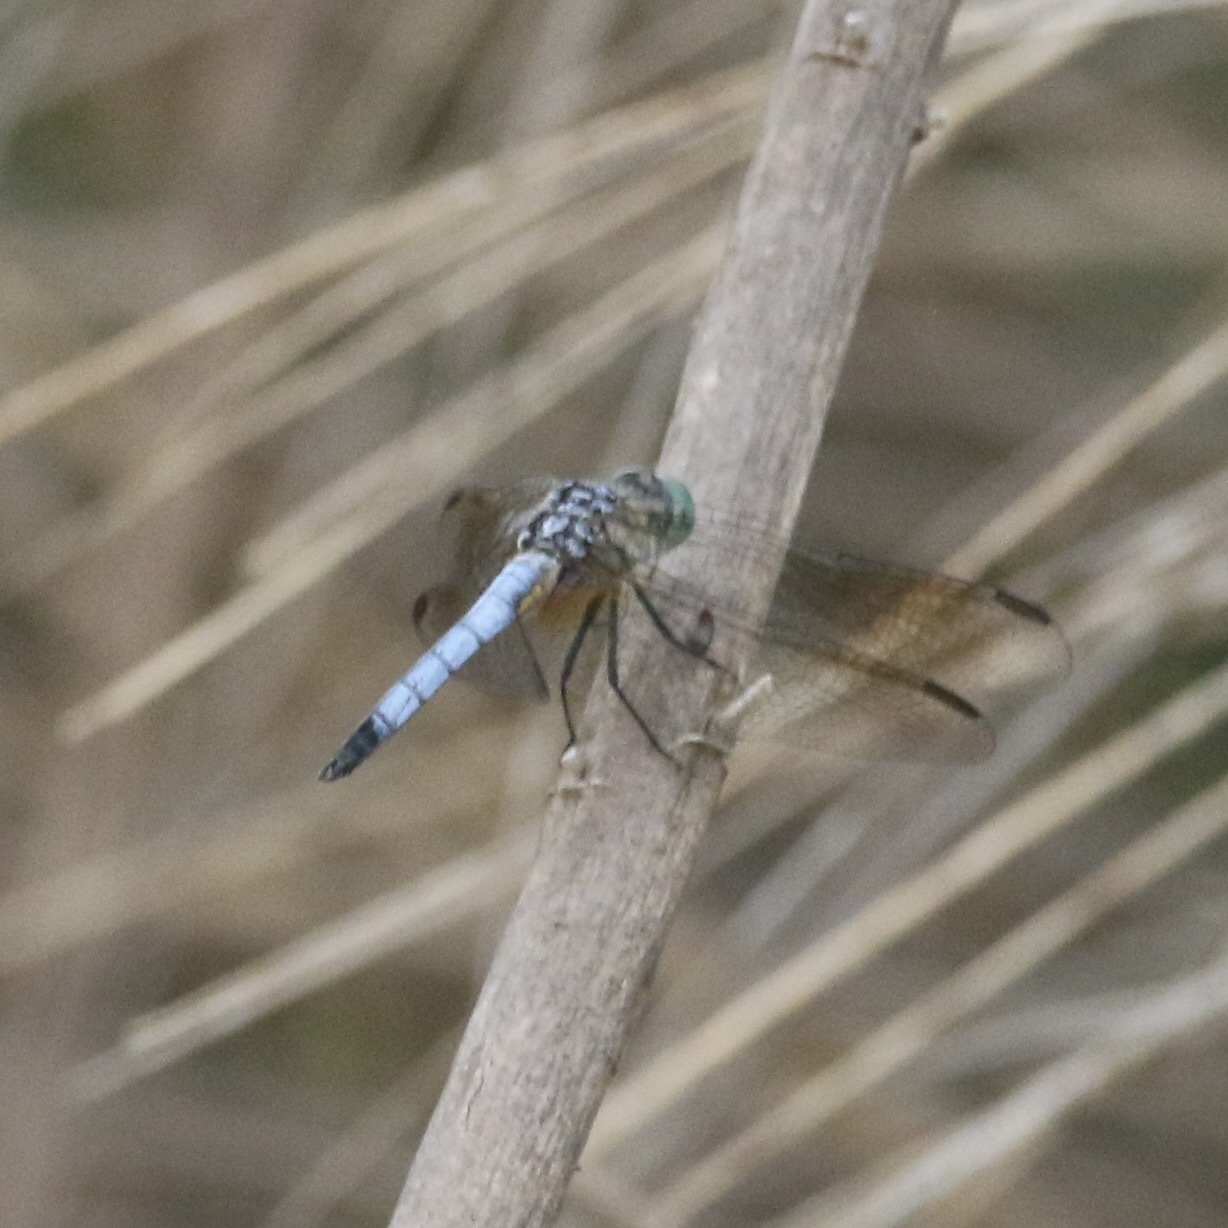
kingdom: Animalia
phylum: Arthropoda
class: Insecta
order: Odonata
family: Libellulidae
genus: Pachydiplax
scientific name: Pachydiplax longipennis
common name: Blue dasher
